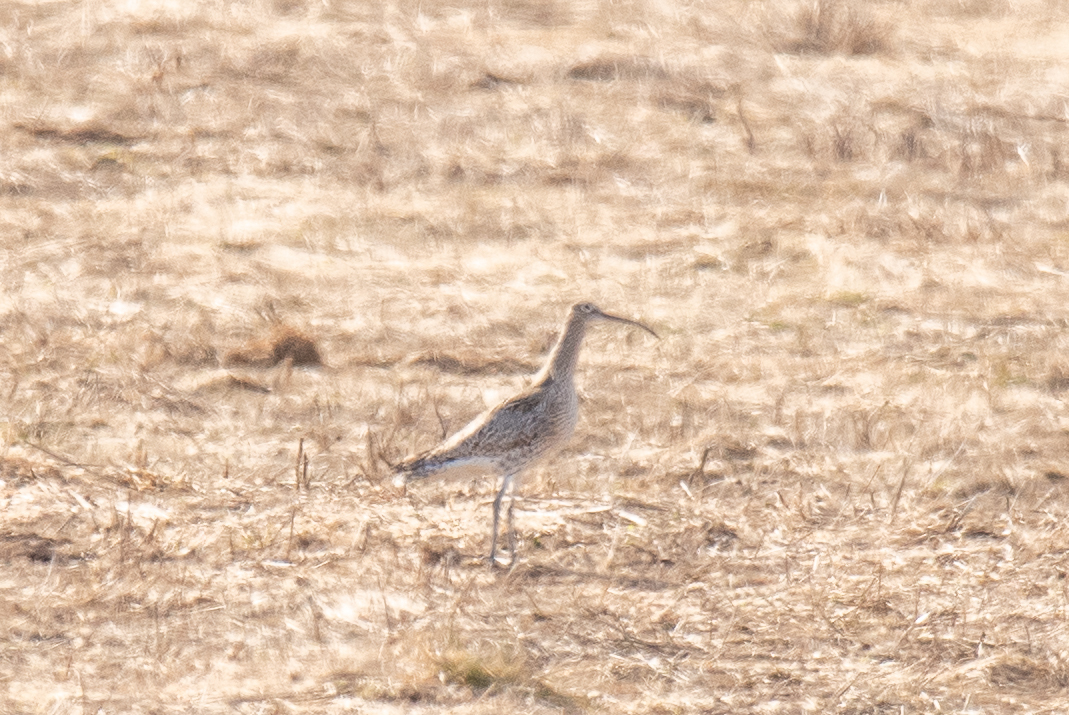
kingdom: Animalia
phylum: Chordata
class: Aves
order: Charadriiformes
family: Scolopacidae
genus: Numenius
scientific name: Numenius arquata
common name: Eurasian curlew
